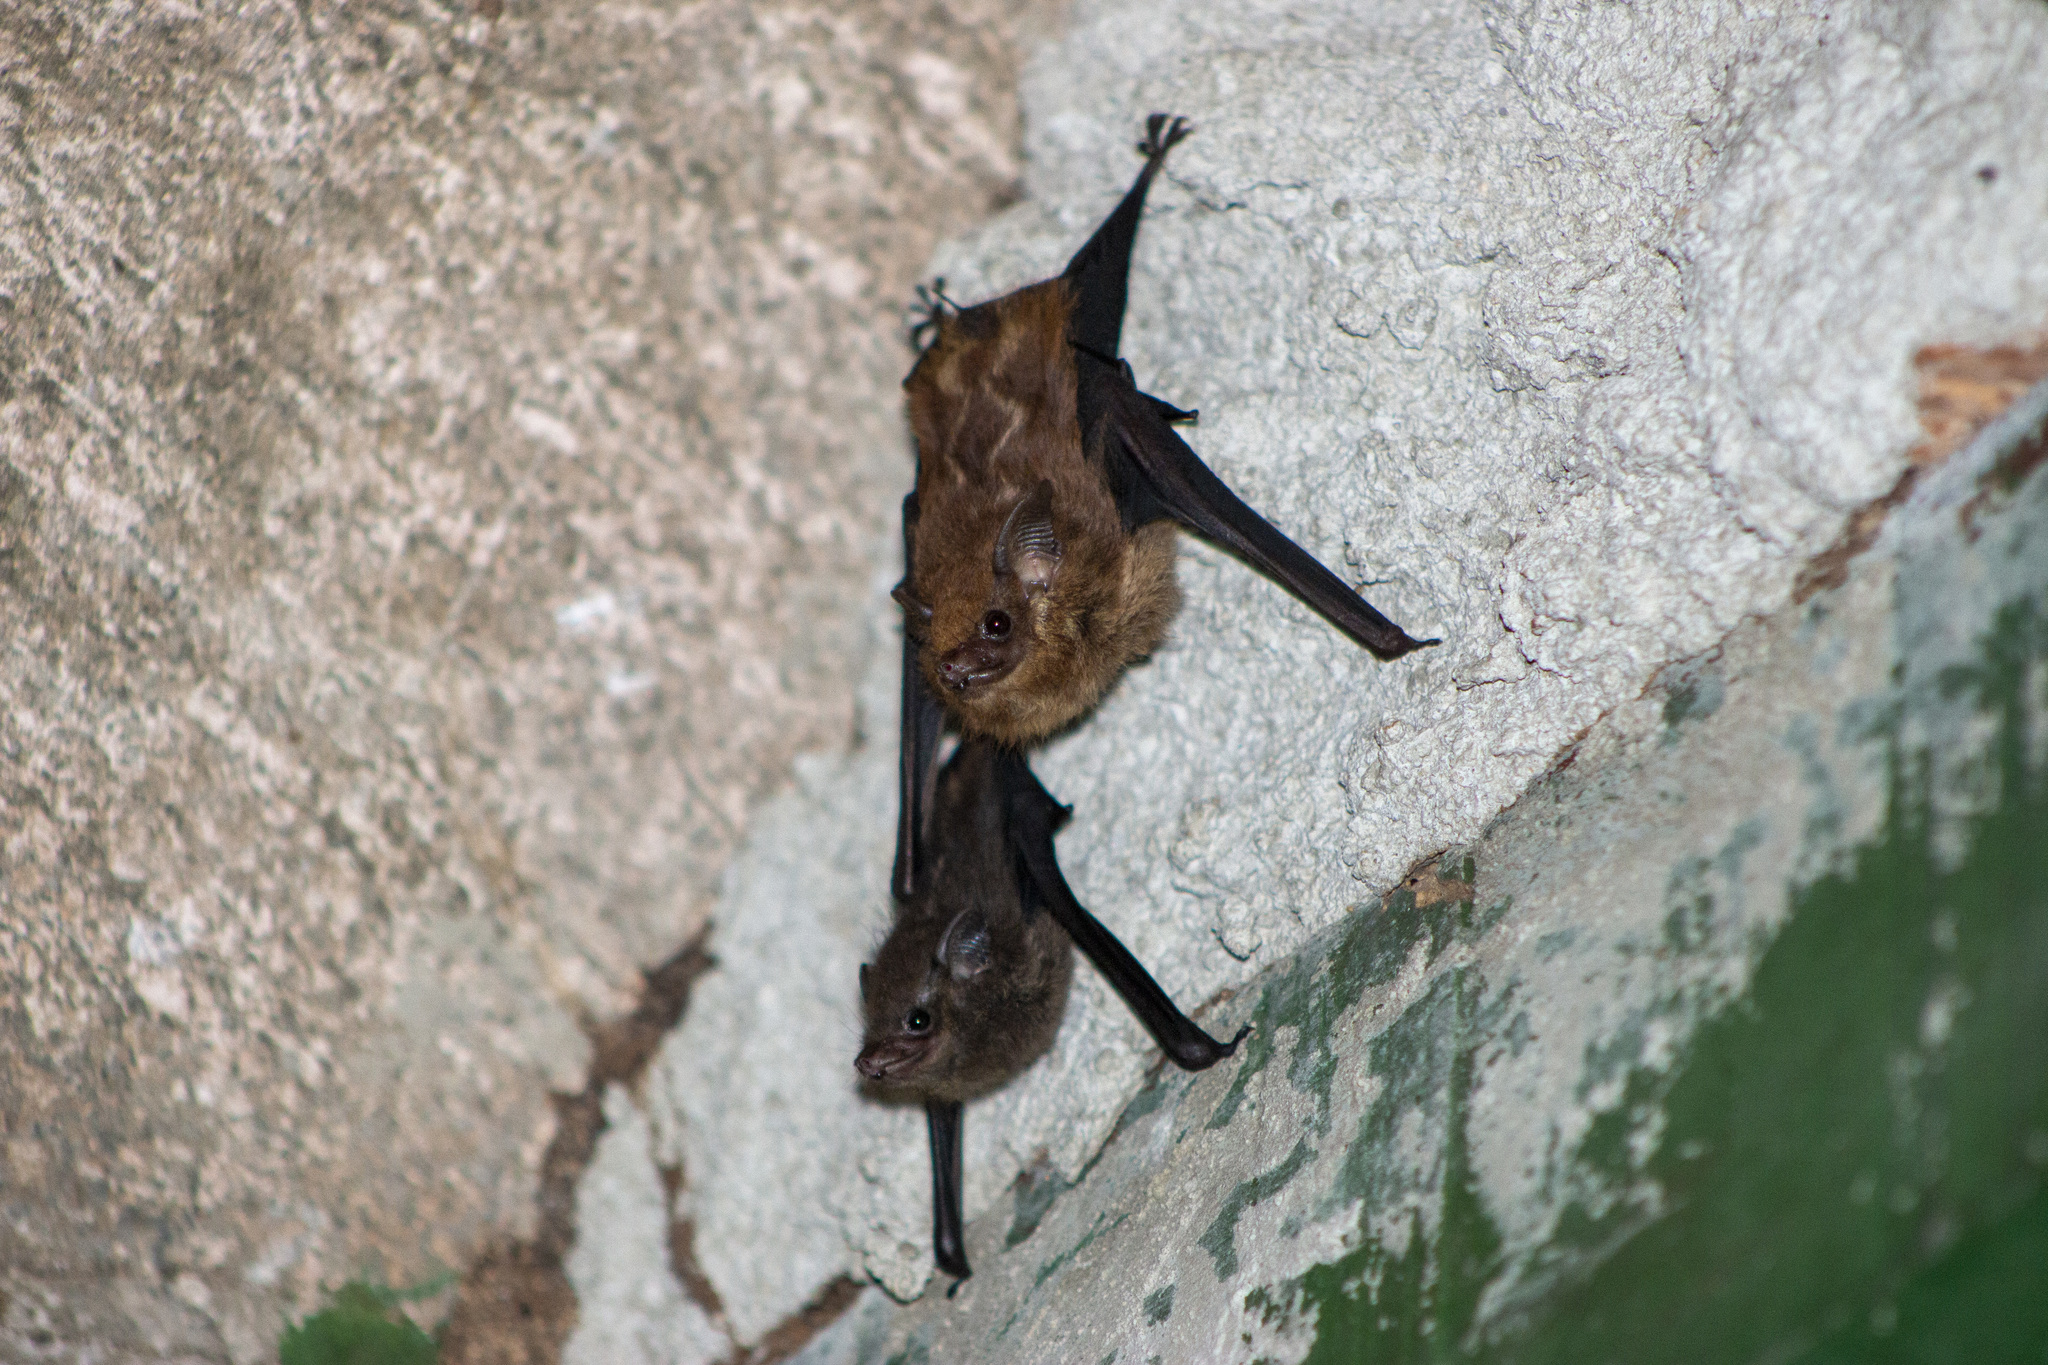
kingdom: Animalia
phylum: Chordata
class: Mammalia
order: Chiroptera
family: Emballonuridae
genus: Saccopteryx
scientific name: Saccopteryx leptura
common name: Lesser sac-winged bat
